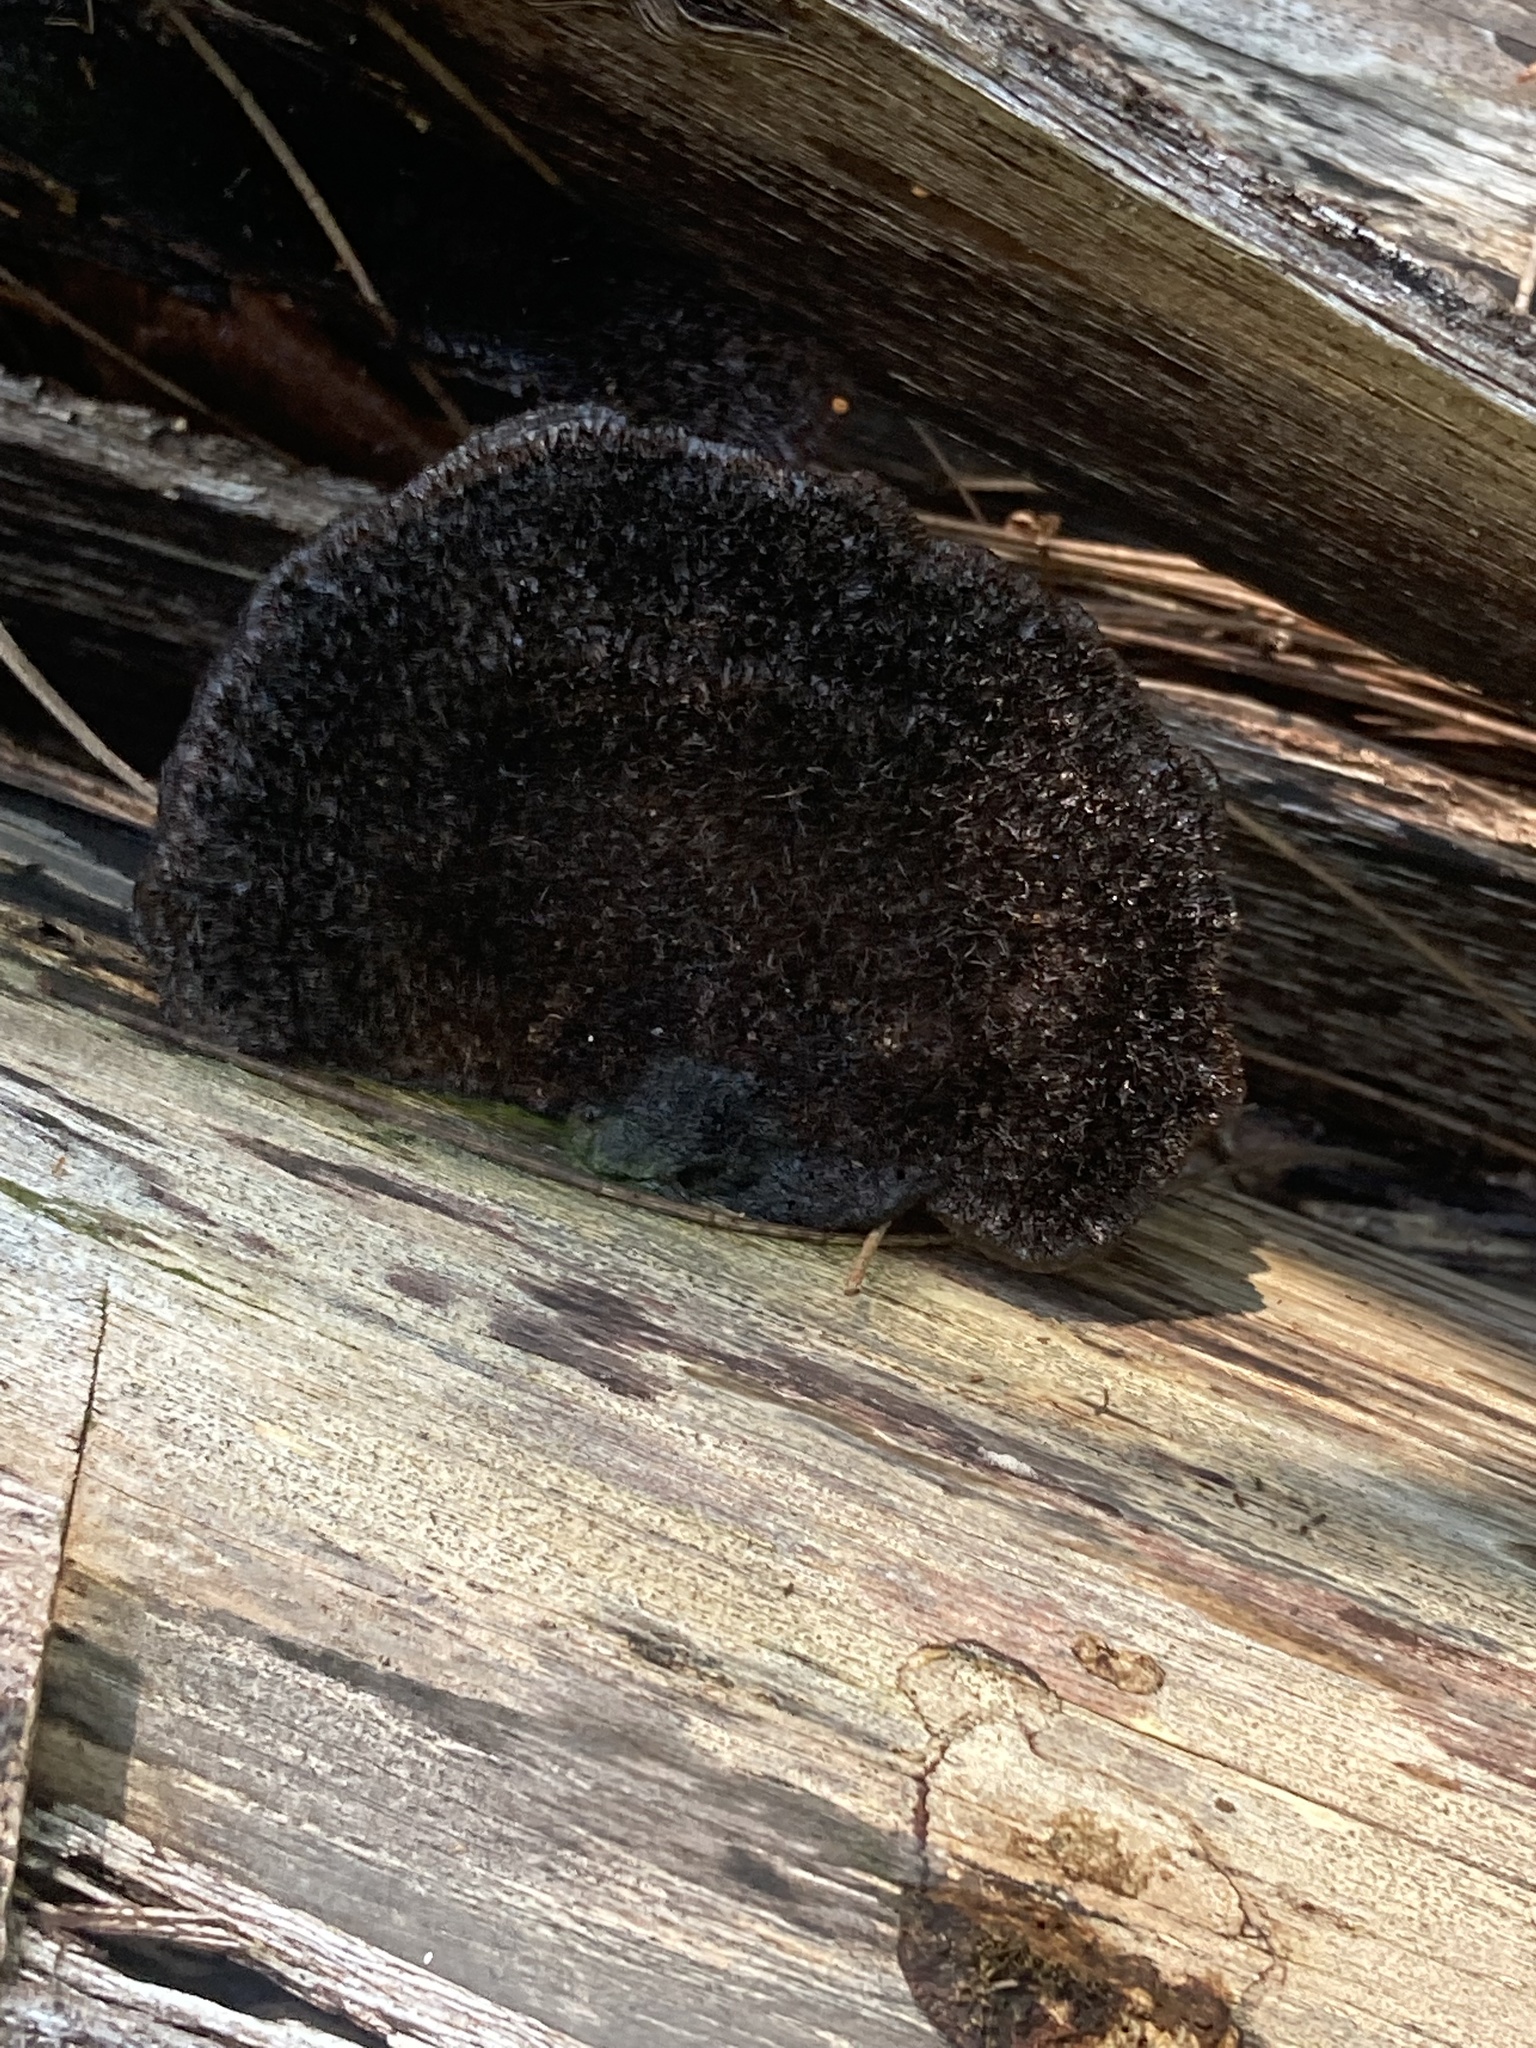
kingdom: Fungi
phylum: Basidiomycota
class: Agaricomycetes
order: Polyporales
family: Cerrenaceae
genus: Cerrena
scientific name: Cerrena hydnoides
